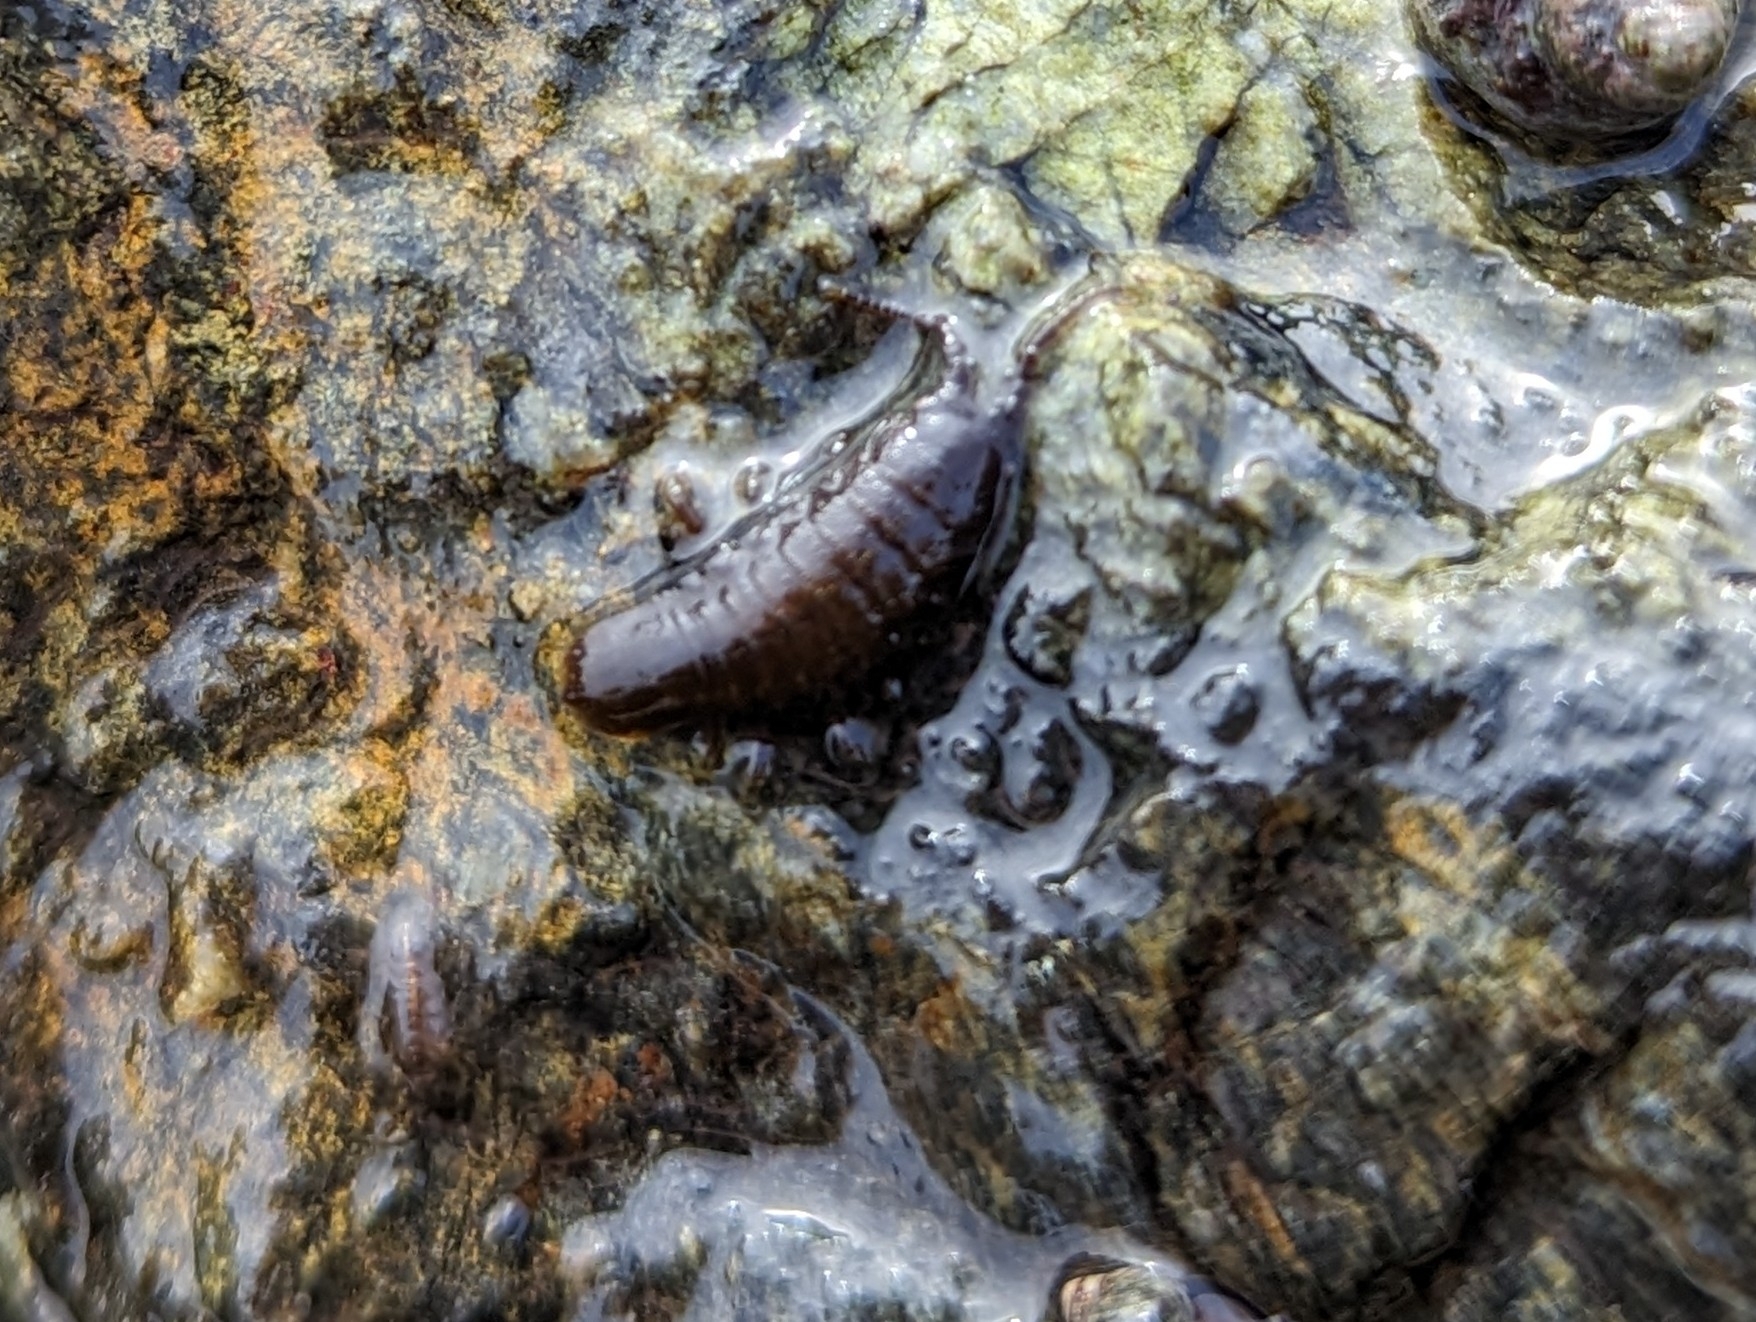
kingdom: Animalia
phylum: Arthropoda
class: Malacostraca
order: Isopoda
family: Idoteidae
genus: Pentidotea
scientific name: Pentidotea wosnesenskii
